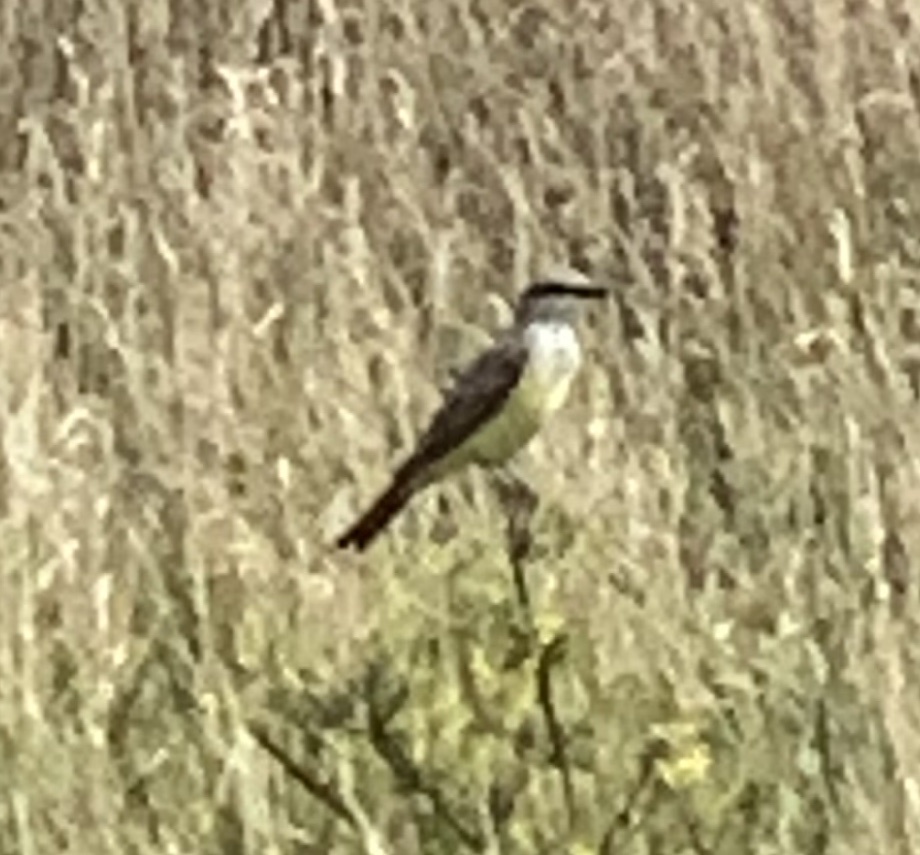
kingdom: Animalia
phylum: Chordata
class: Aves
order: Passeriformes
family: Tyrannidae
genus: Tyrannus
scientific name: Tyrannus verticalis
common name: Western kingbird
